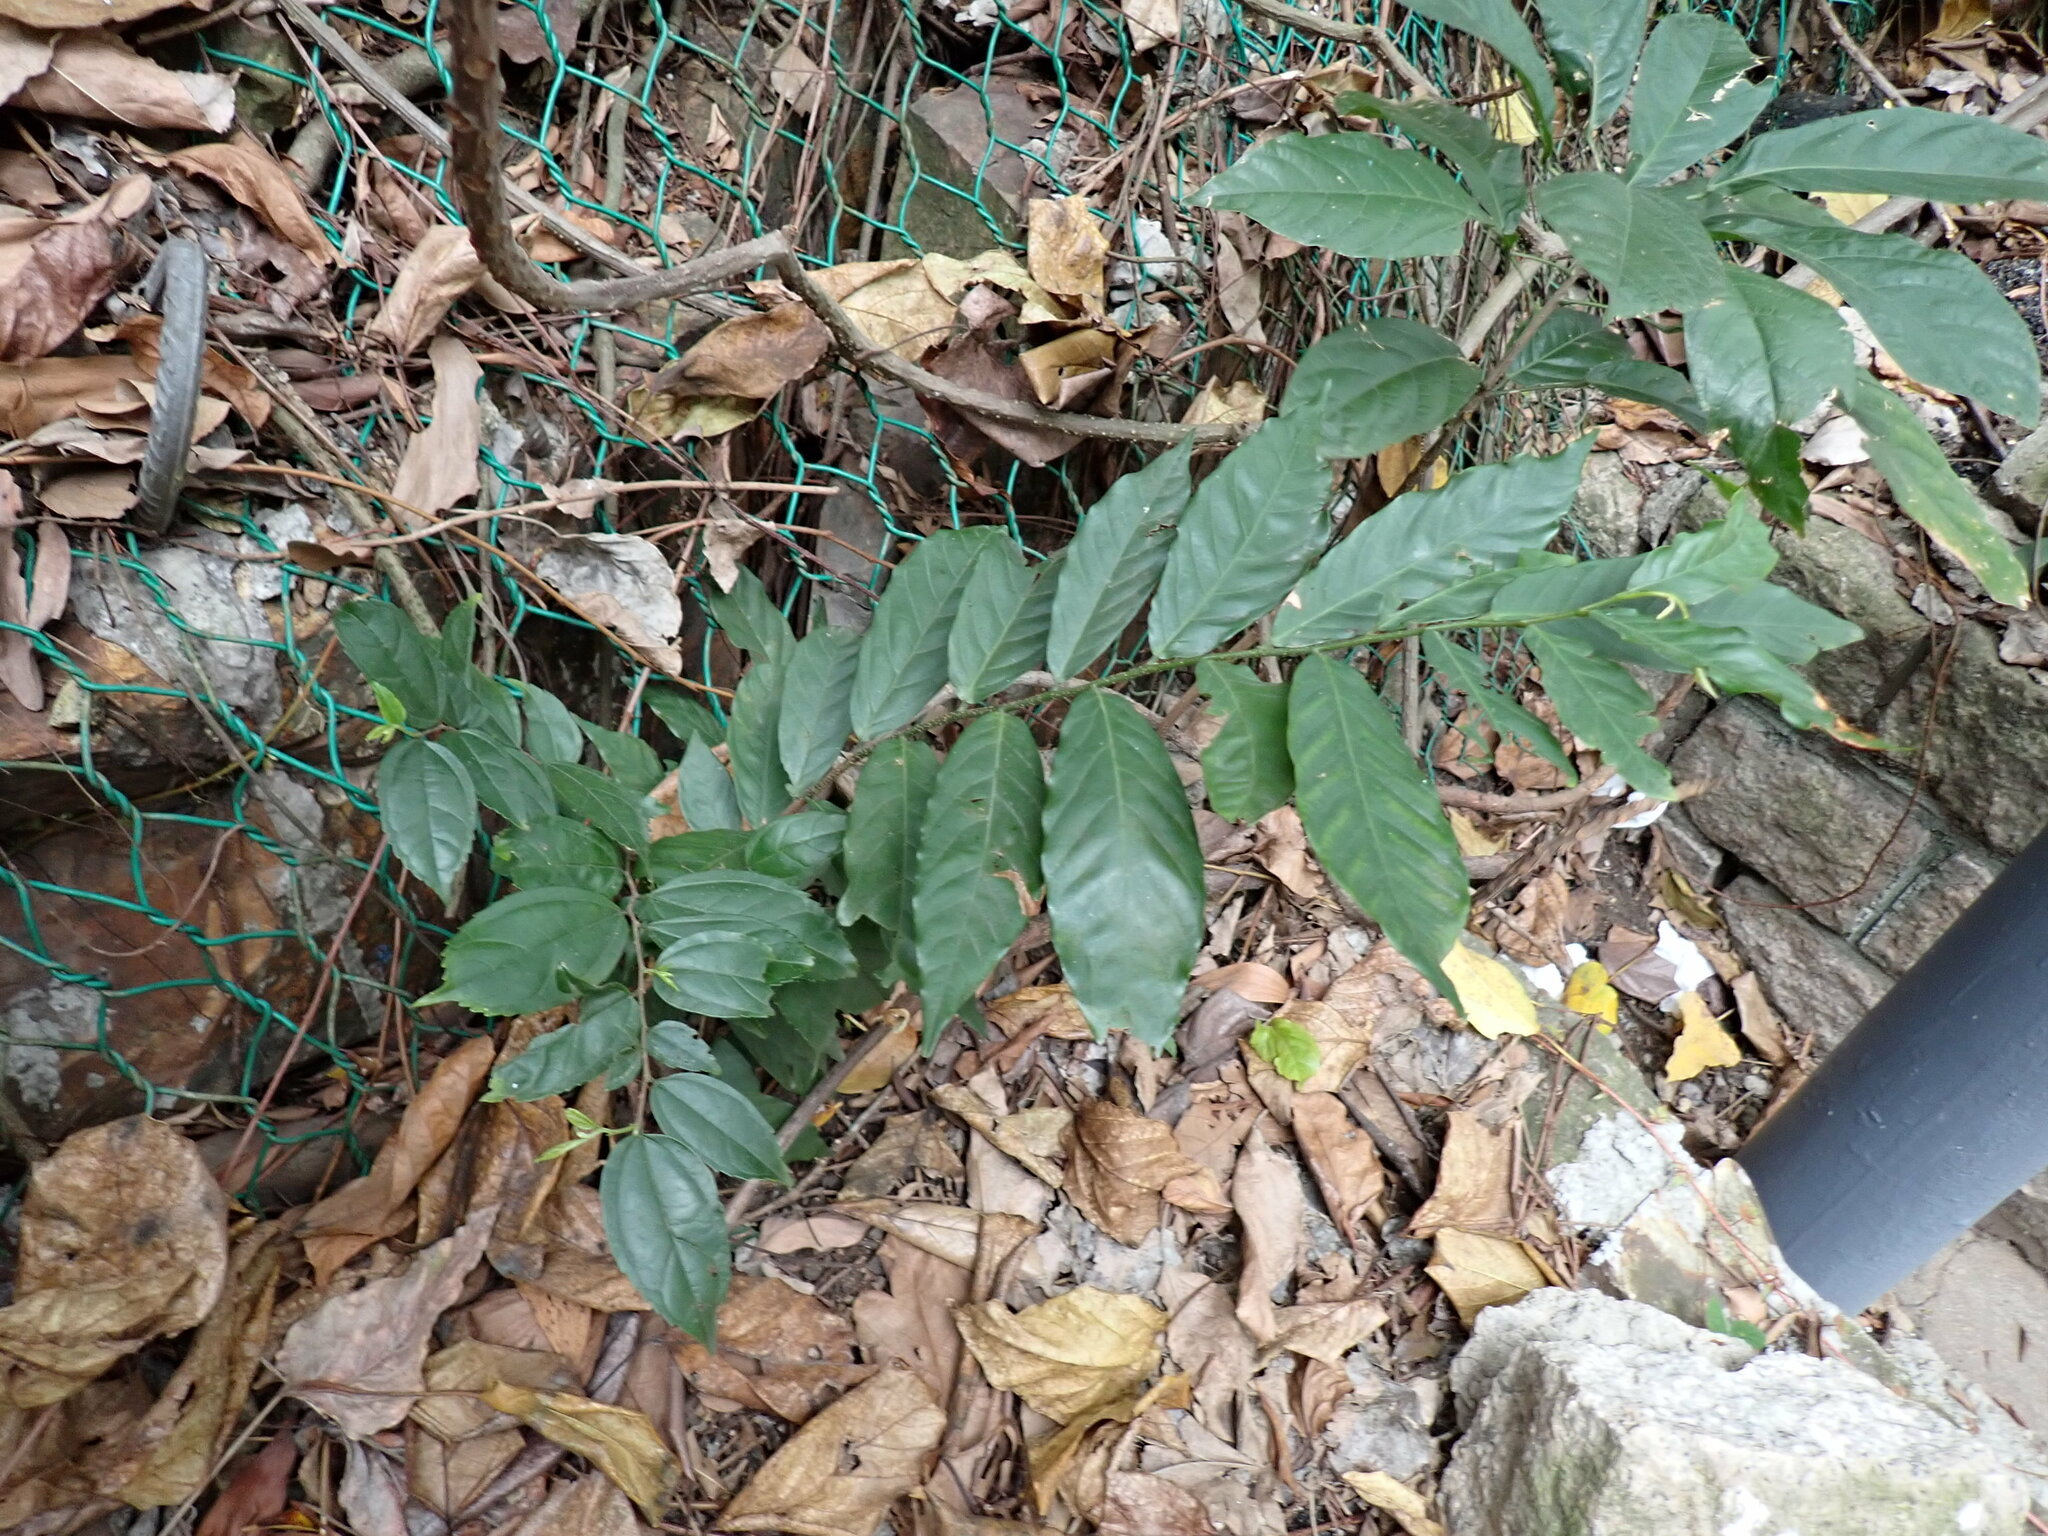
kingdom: Plantae
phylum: Tracheophyta
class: Magnoliopsida
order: Magnoliales
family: Annonaceae
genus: Desmos
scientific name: Desmos chinensis
